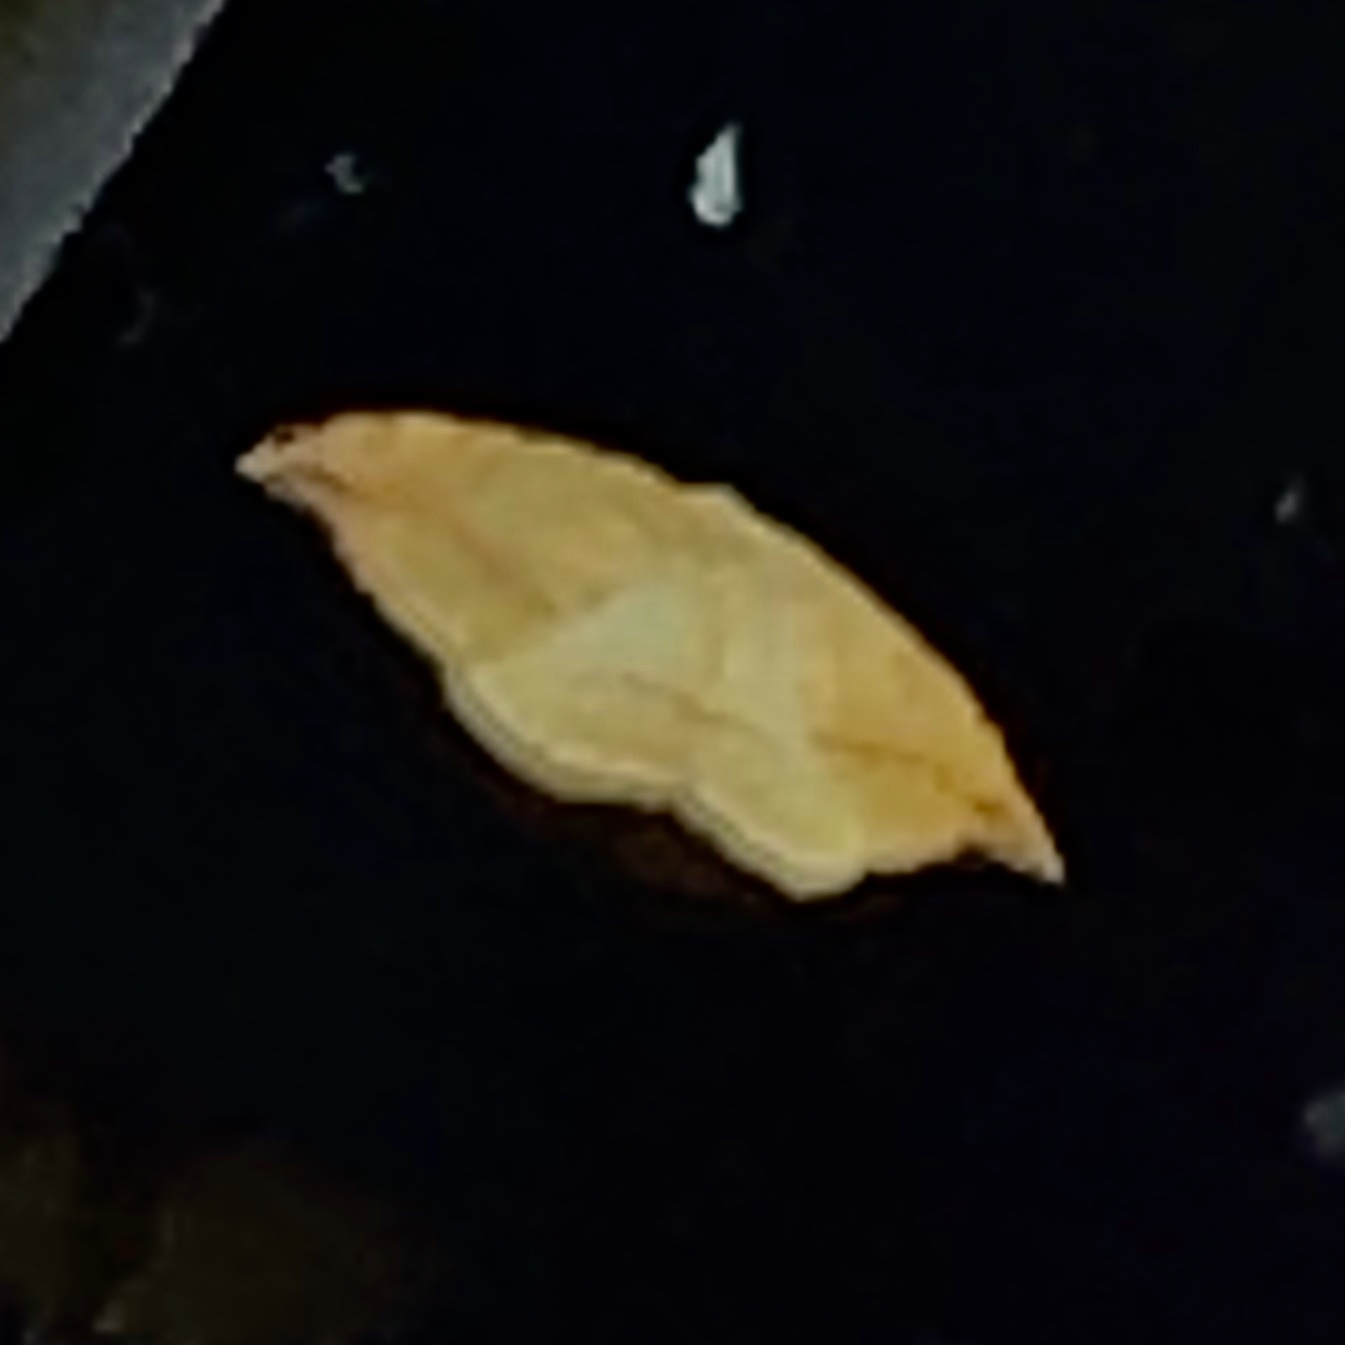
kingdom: Animalia
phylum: Arthropoda
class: Insecta
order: Lepidoptera
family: Drepanidae
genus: Drepana
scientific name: Drepana arcuata
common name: Arched hooktip moth
